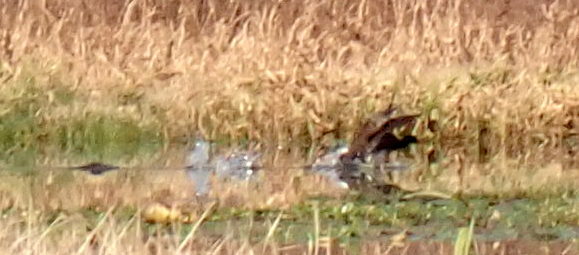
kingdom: Animalia
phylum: Chordata
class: Aves
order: Gruiformes
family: Rallidae
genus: Gallinula
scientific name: Gallinula chloropus
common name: Common moorhen
